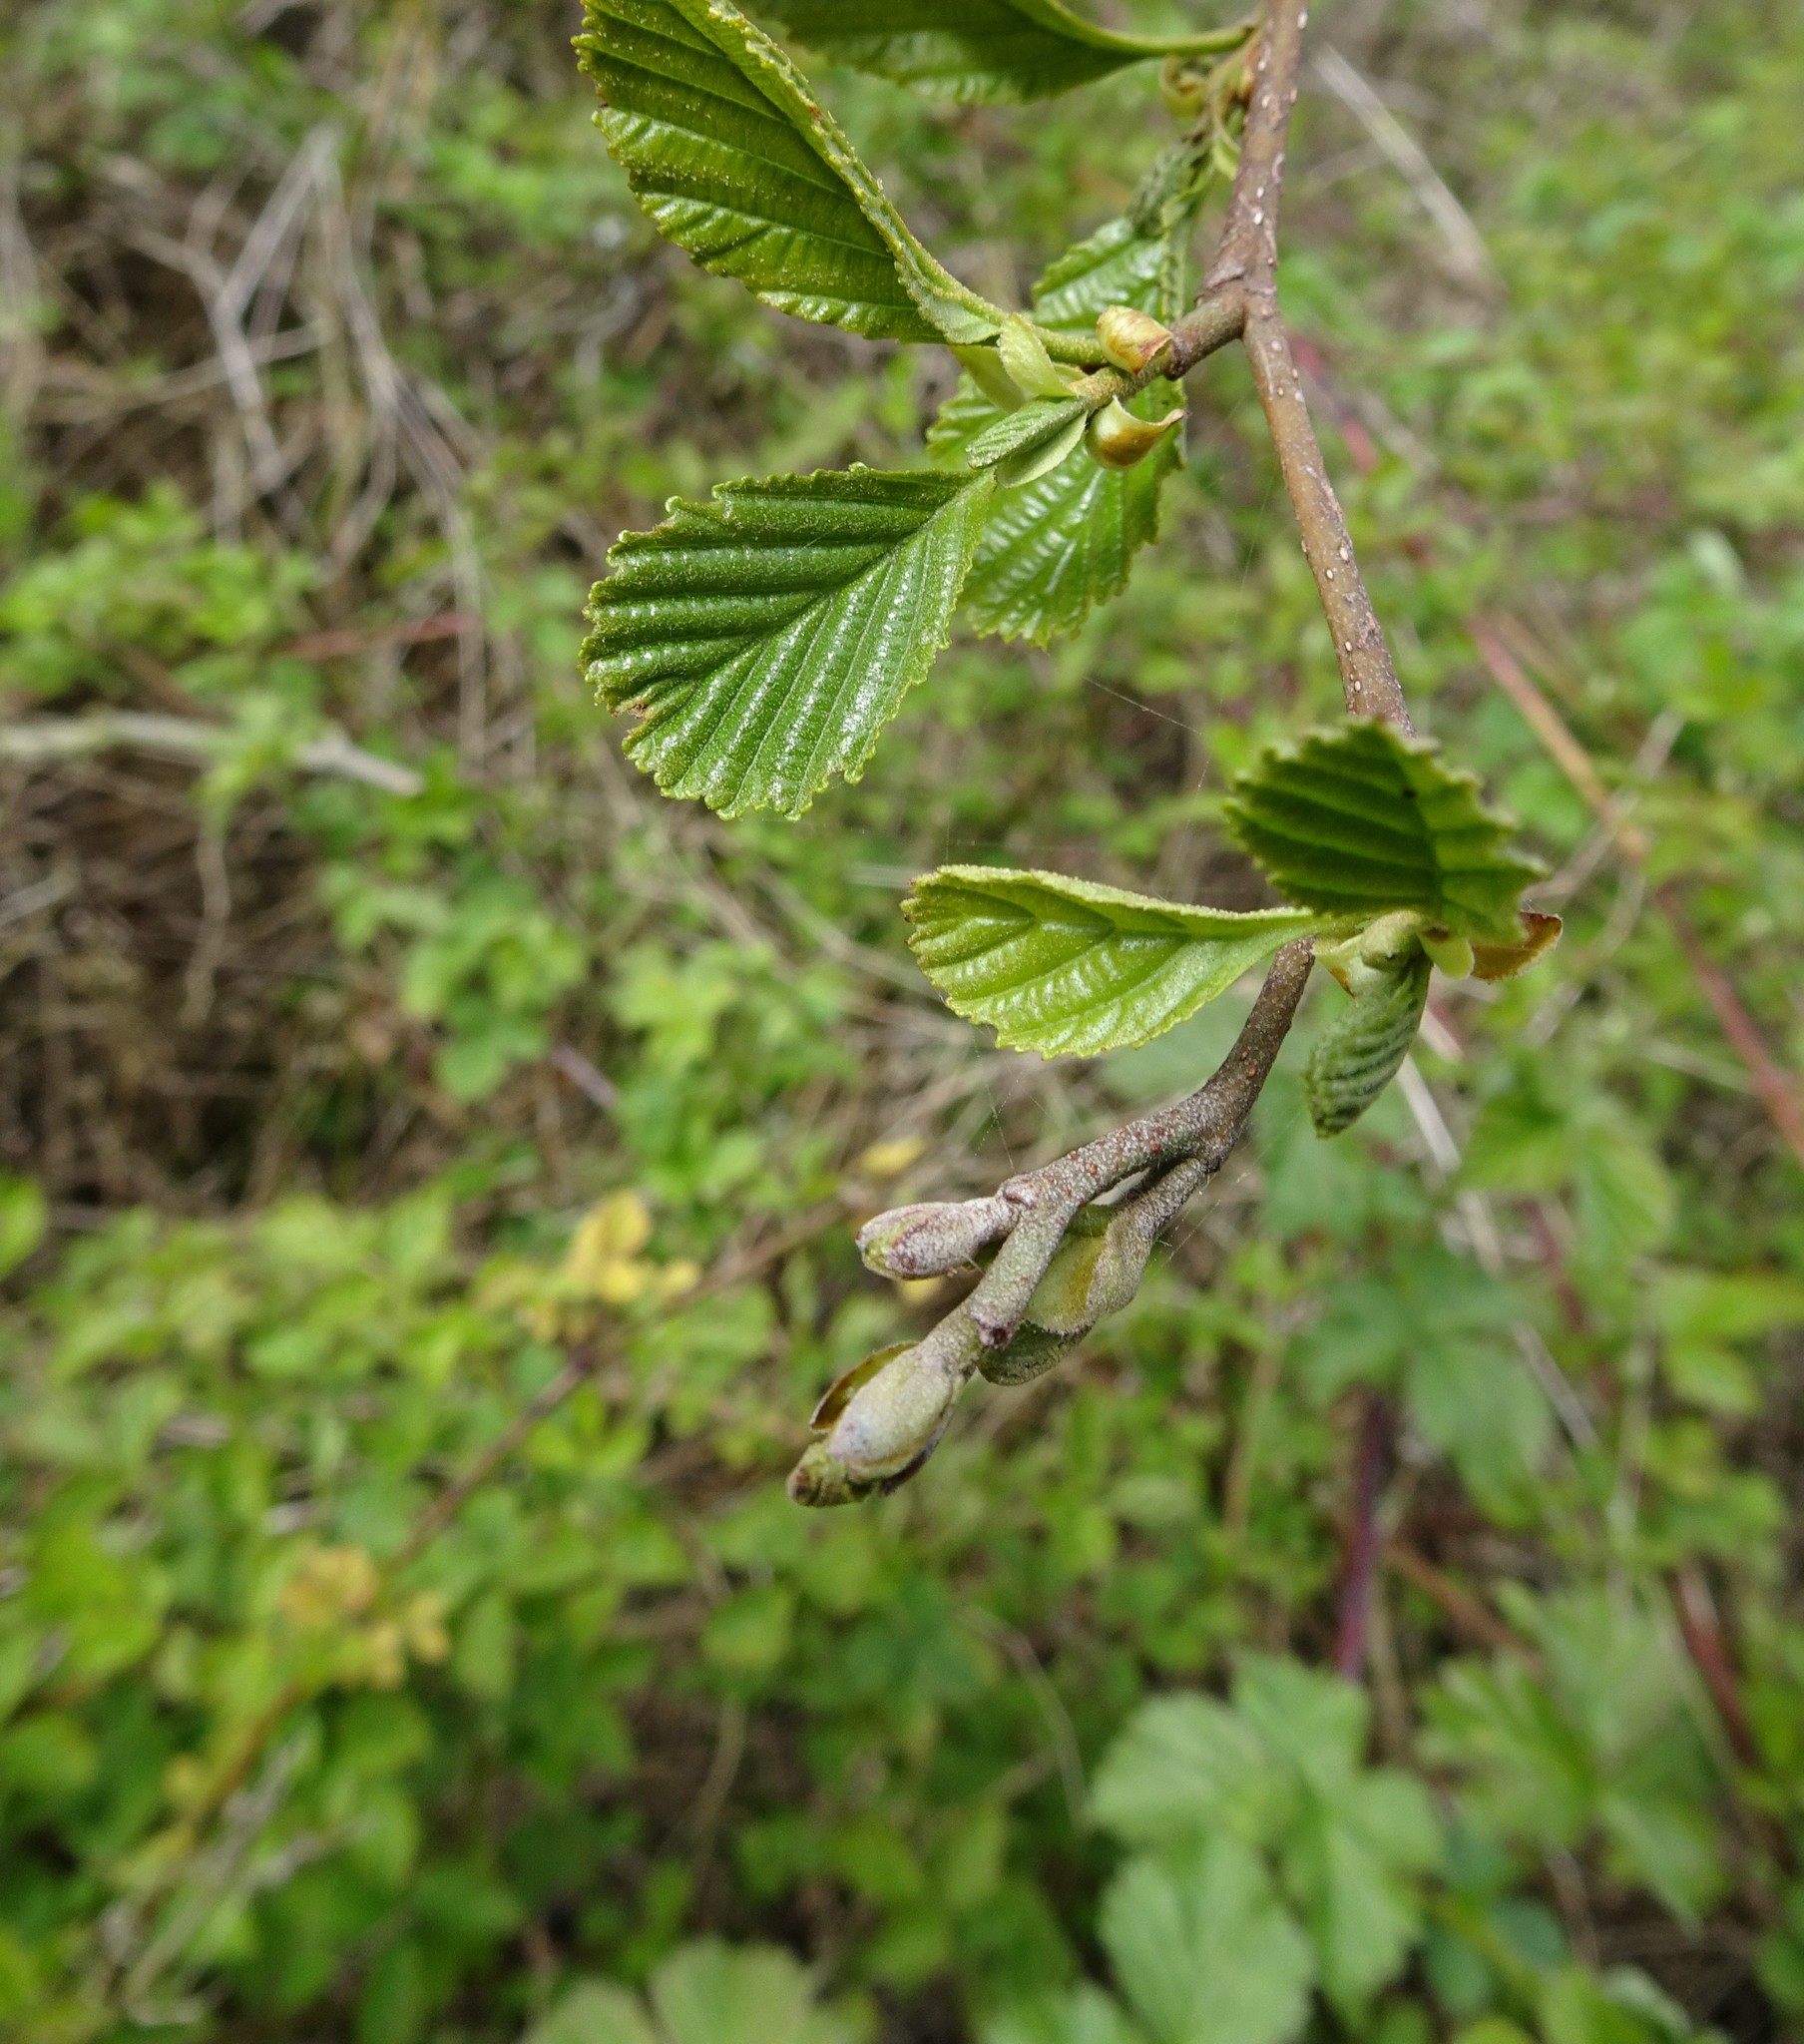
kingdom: Plantae
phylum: Tracheophyta
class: Magnoliopsida
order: Fagales
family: Betulaceae
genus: Alnus
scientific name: Alnus glutinosa
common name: Black alder
